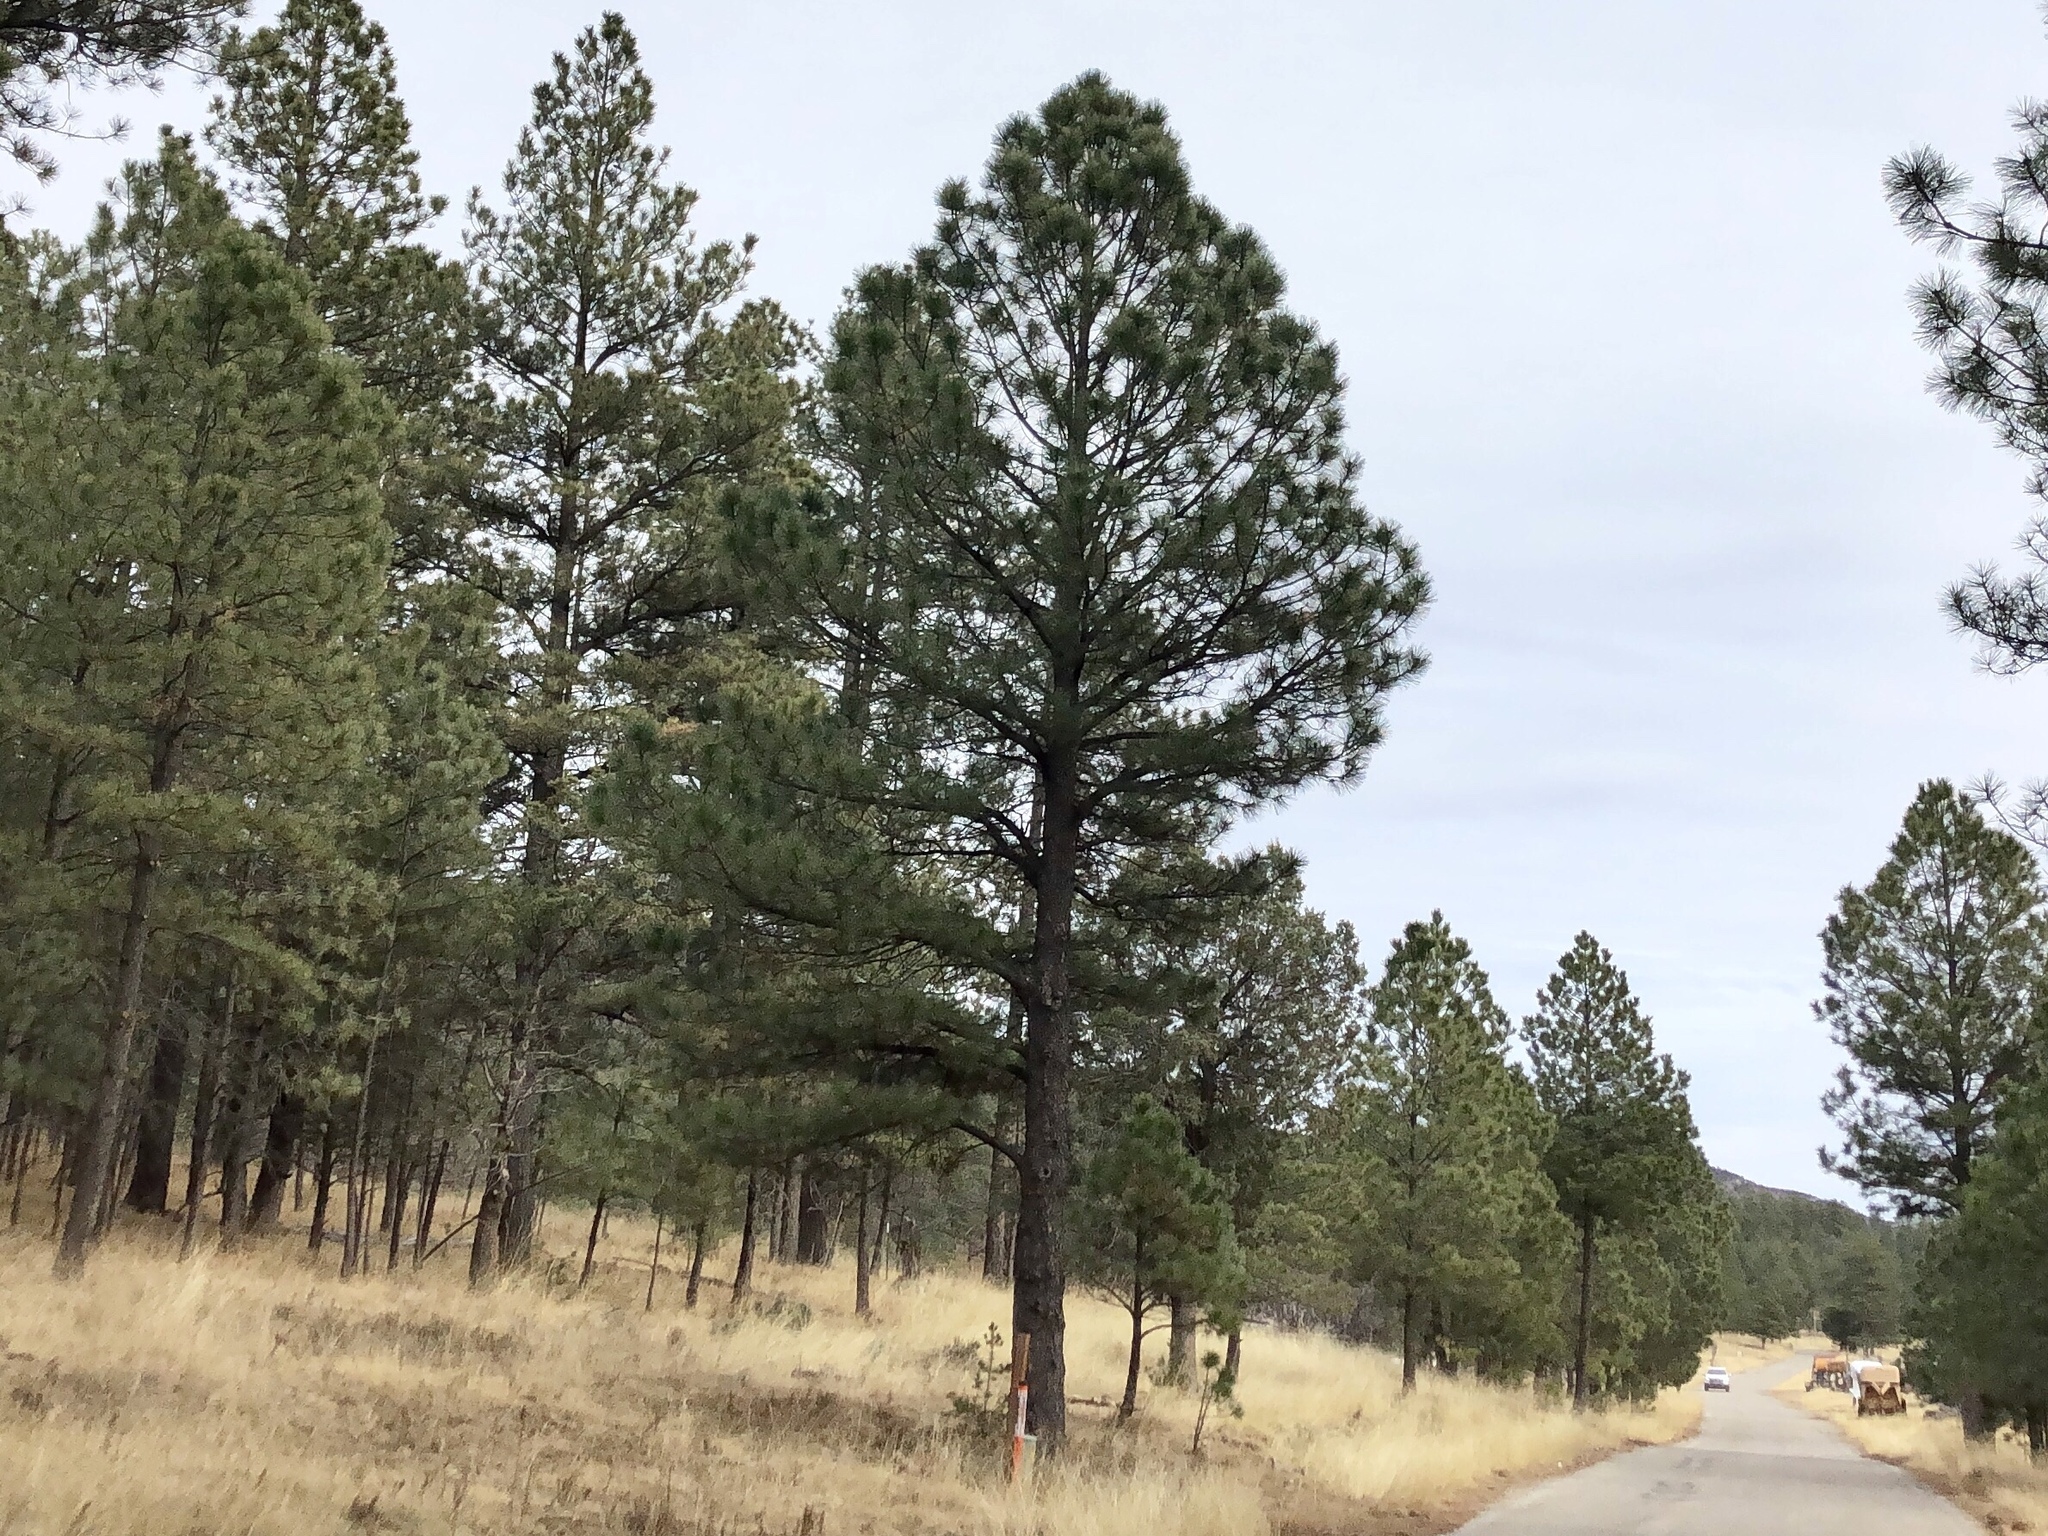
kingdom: Plantae
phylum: Tracheophyta
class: Pinopsida
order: Pinales
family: Pinaceae
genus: Pinus
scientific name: Pinus ponderosa
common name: Western yellow-pine
